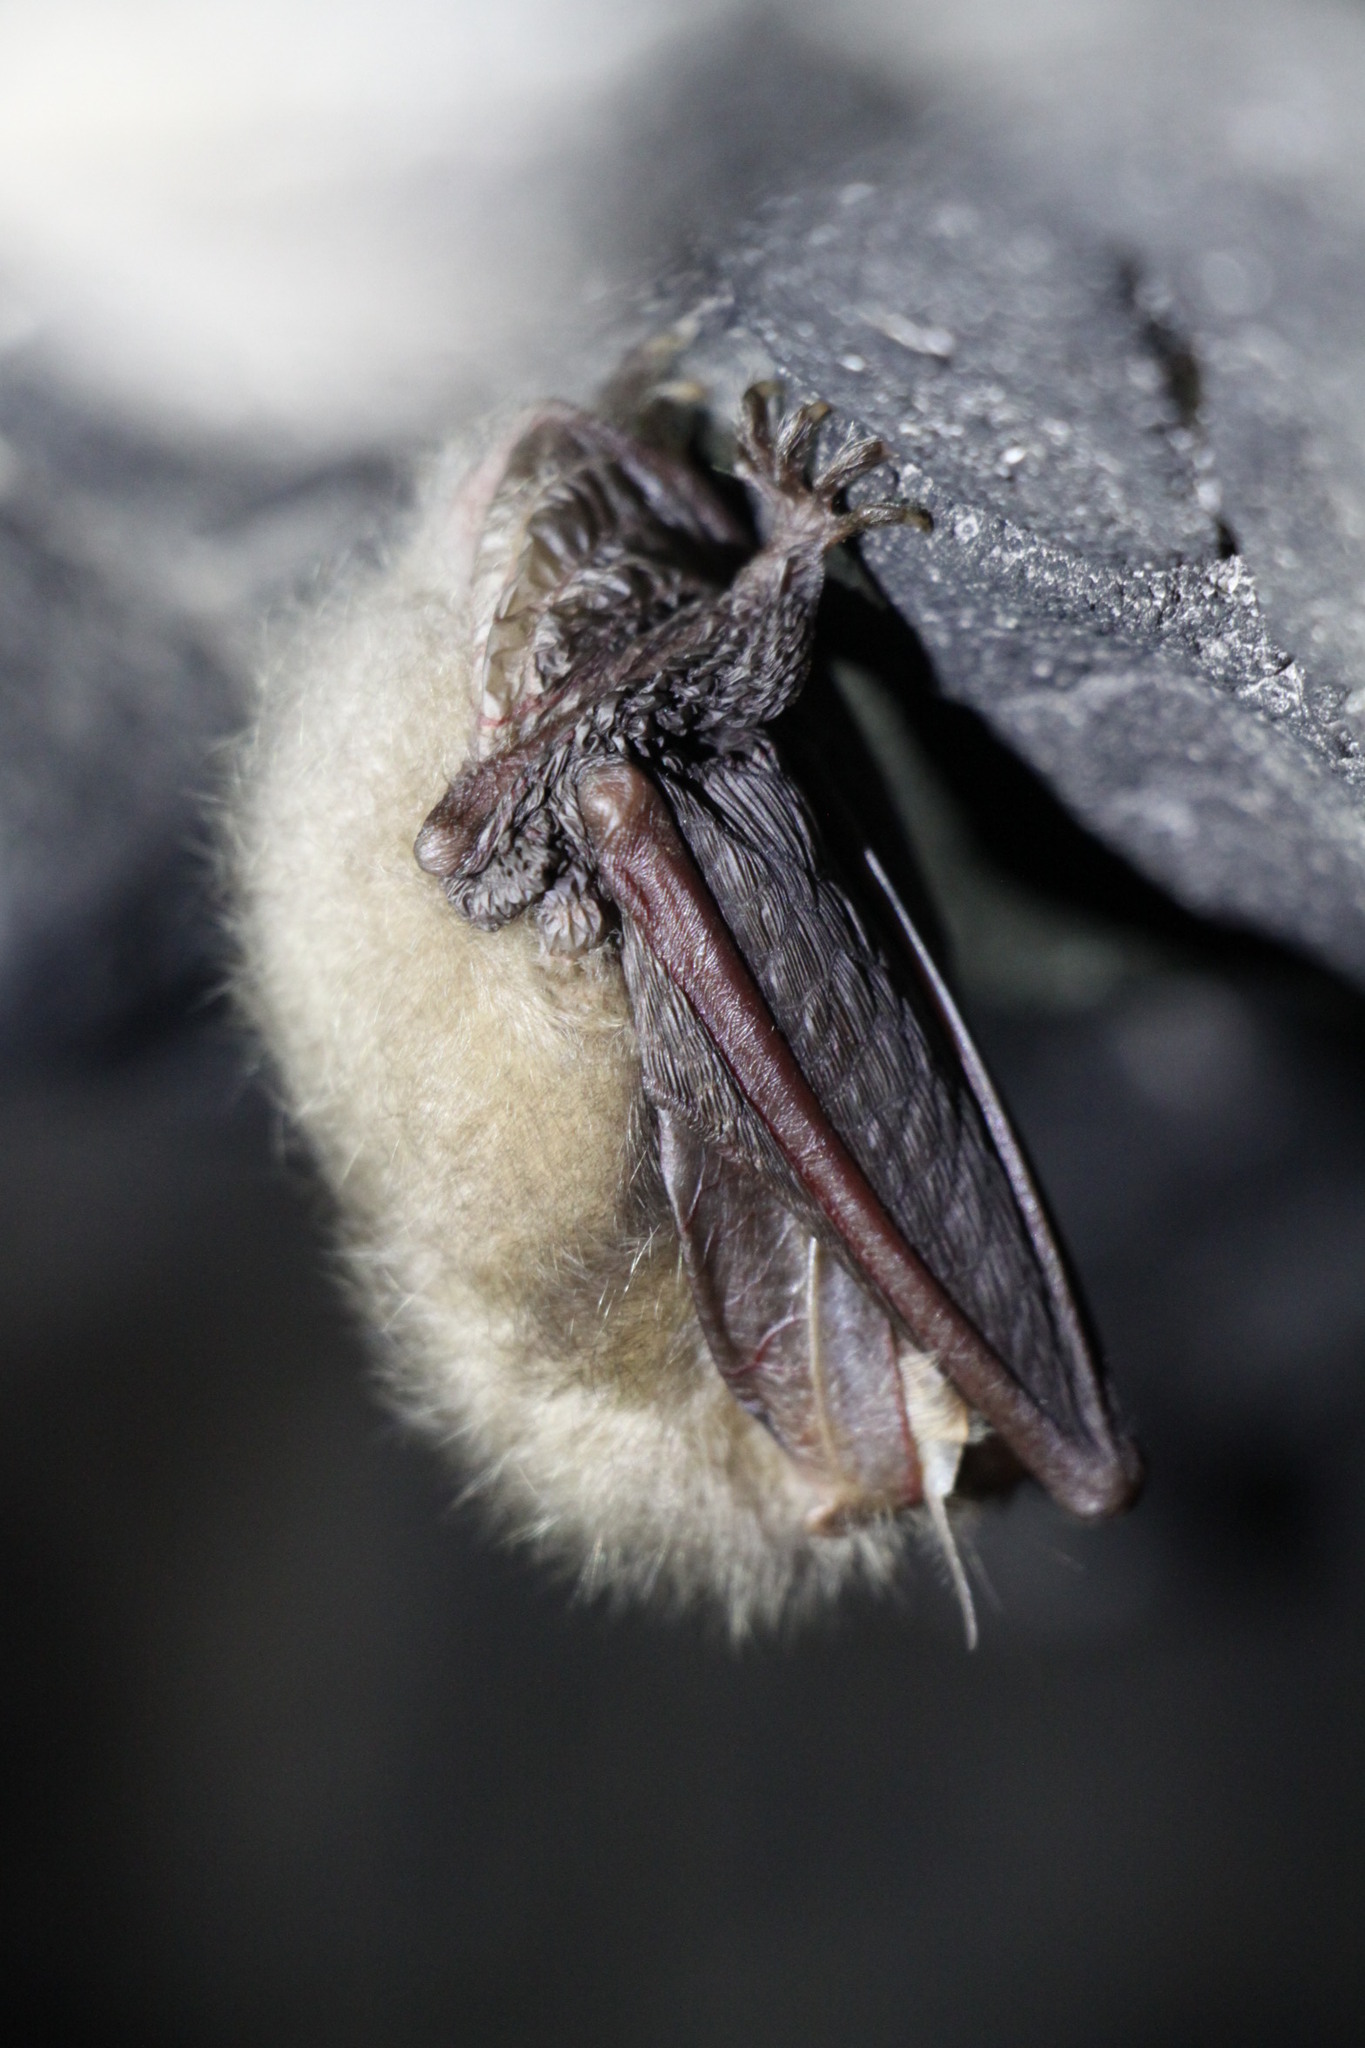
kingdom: Animalia
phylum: Chordata
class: Mammalia
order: Chiroptera
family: Vespertilionidae
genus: Plecotus
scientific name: Plecotus auritus
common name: Brown long-eared bat
